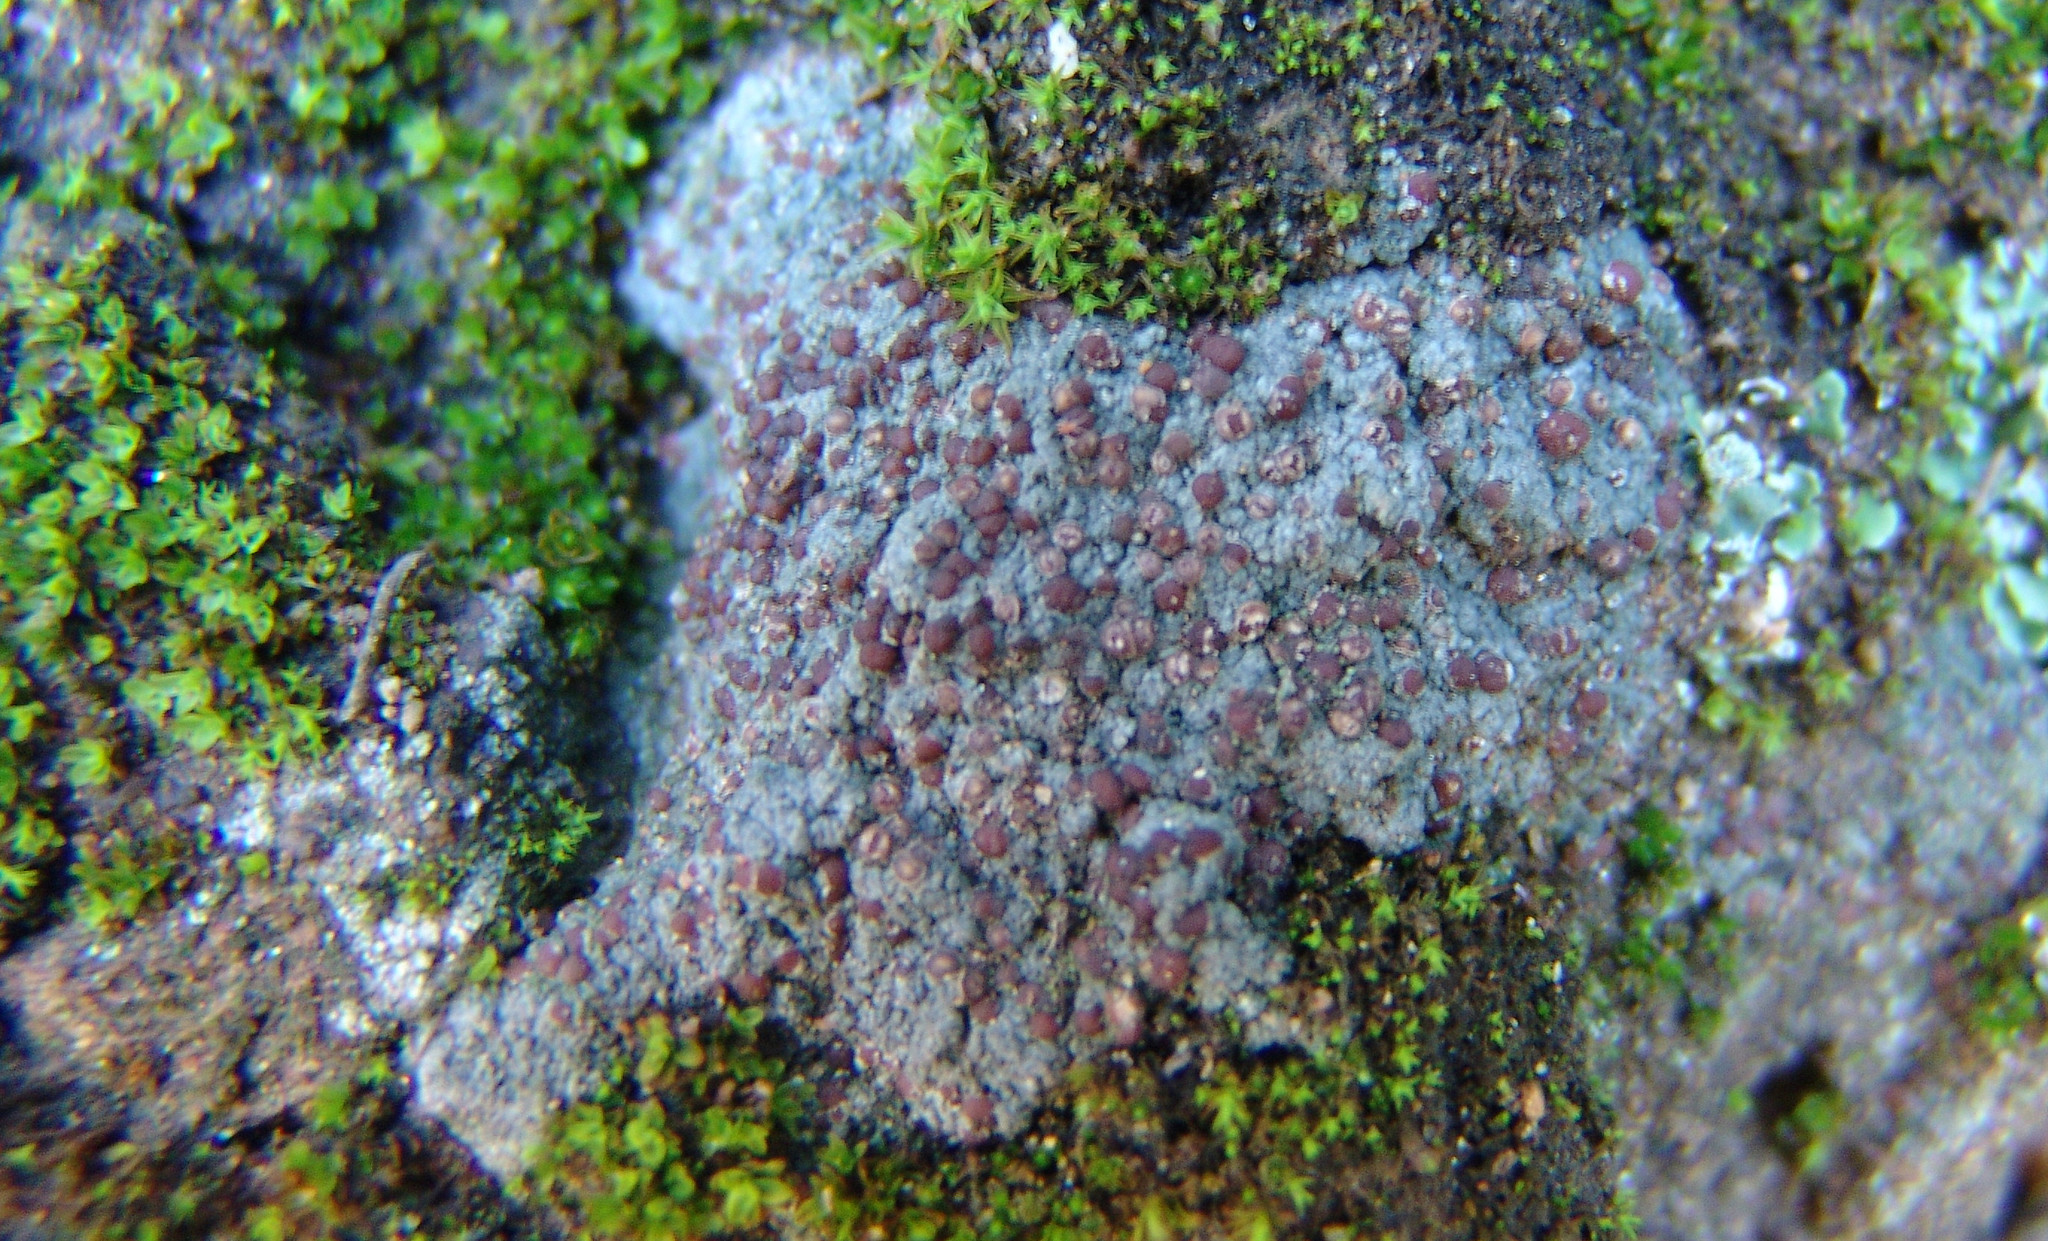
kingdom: Fungi
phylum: Ascomycota
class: Lecanoromycetes
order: Pertusariales
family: Icmadophilaceae
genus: Icmadophila
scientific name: Icmadophila ericetorum
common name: Candy lichen
